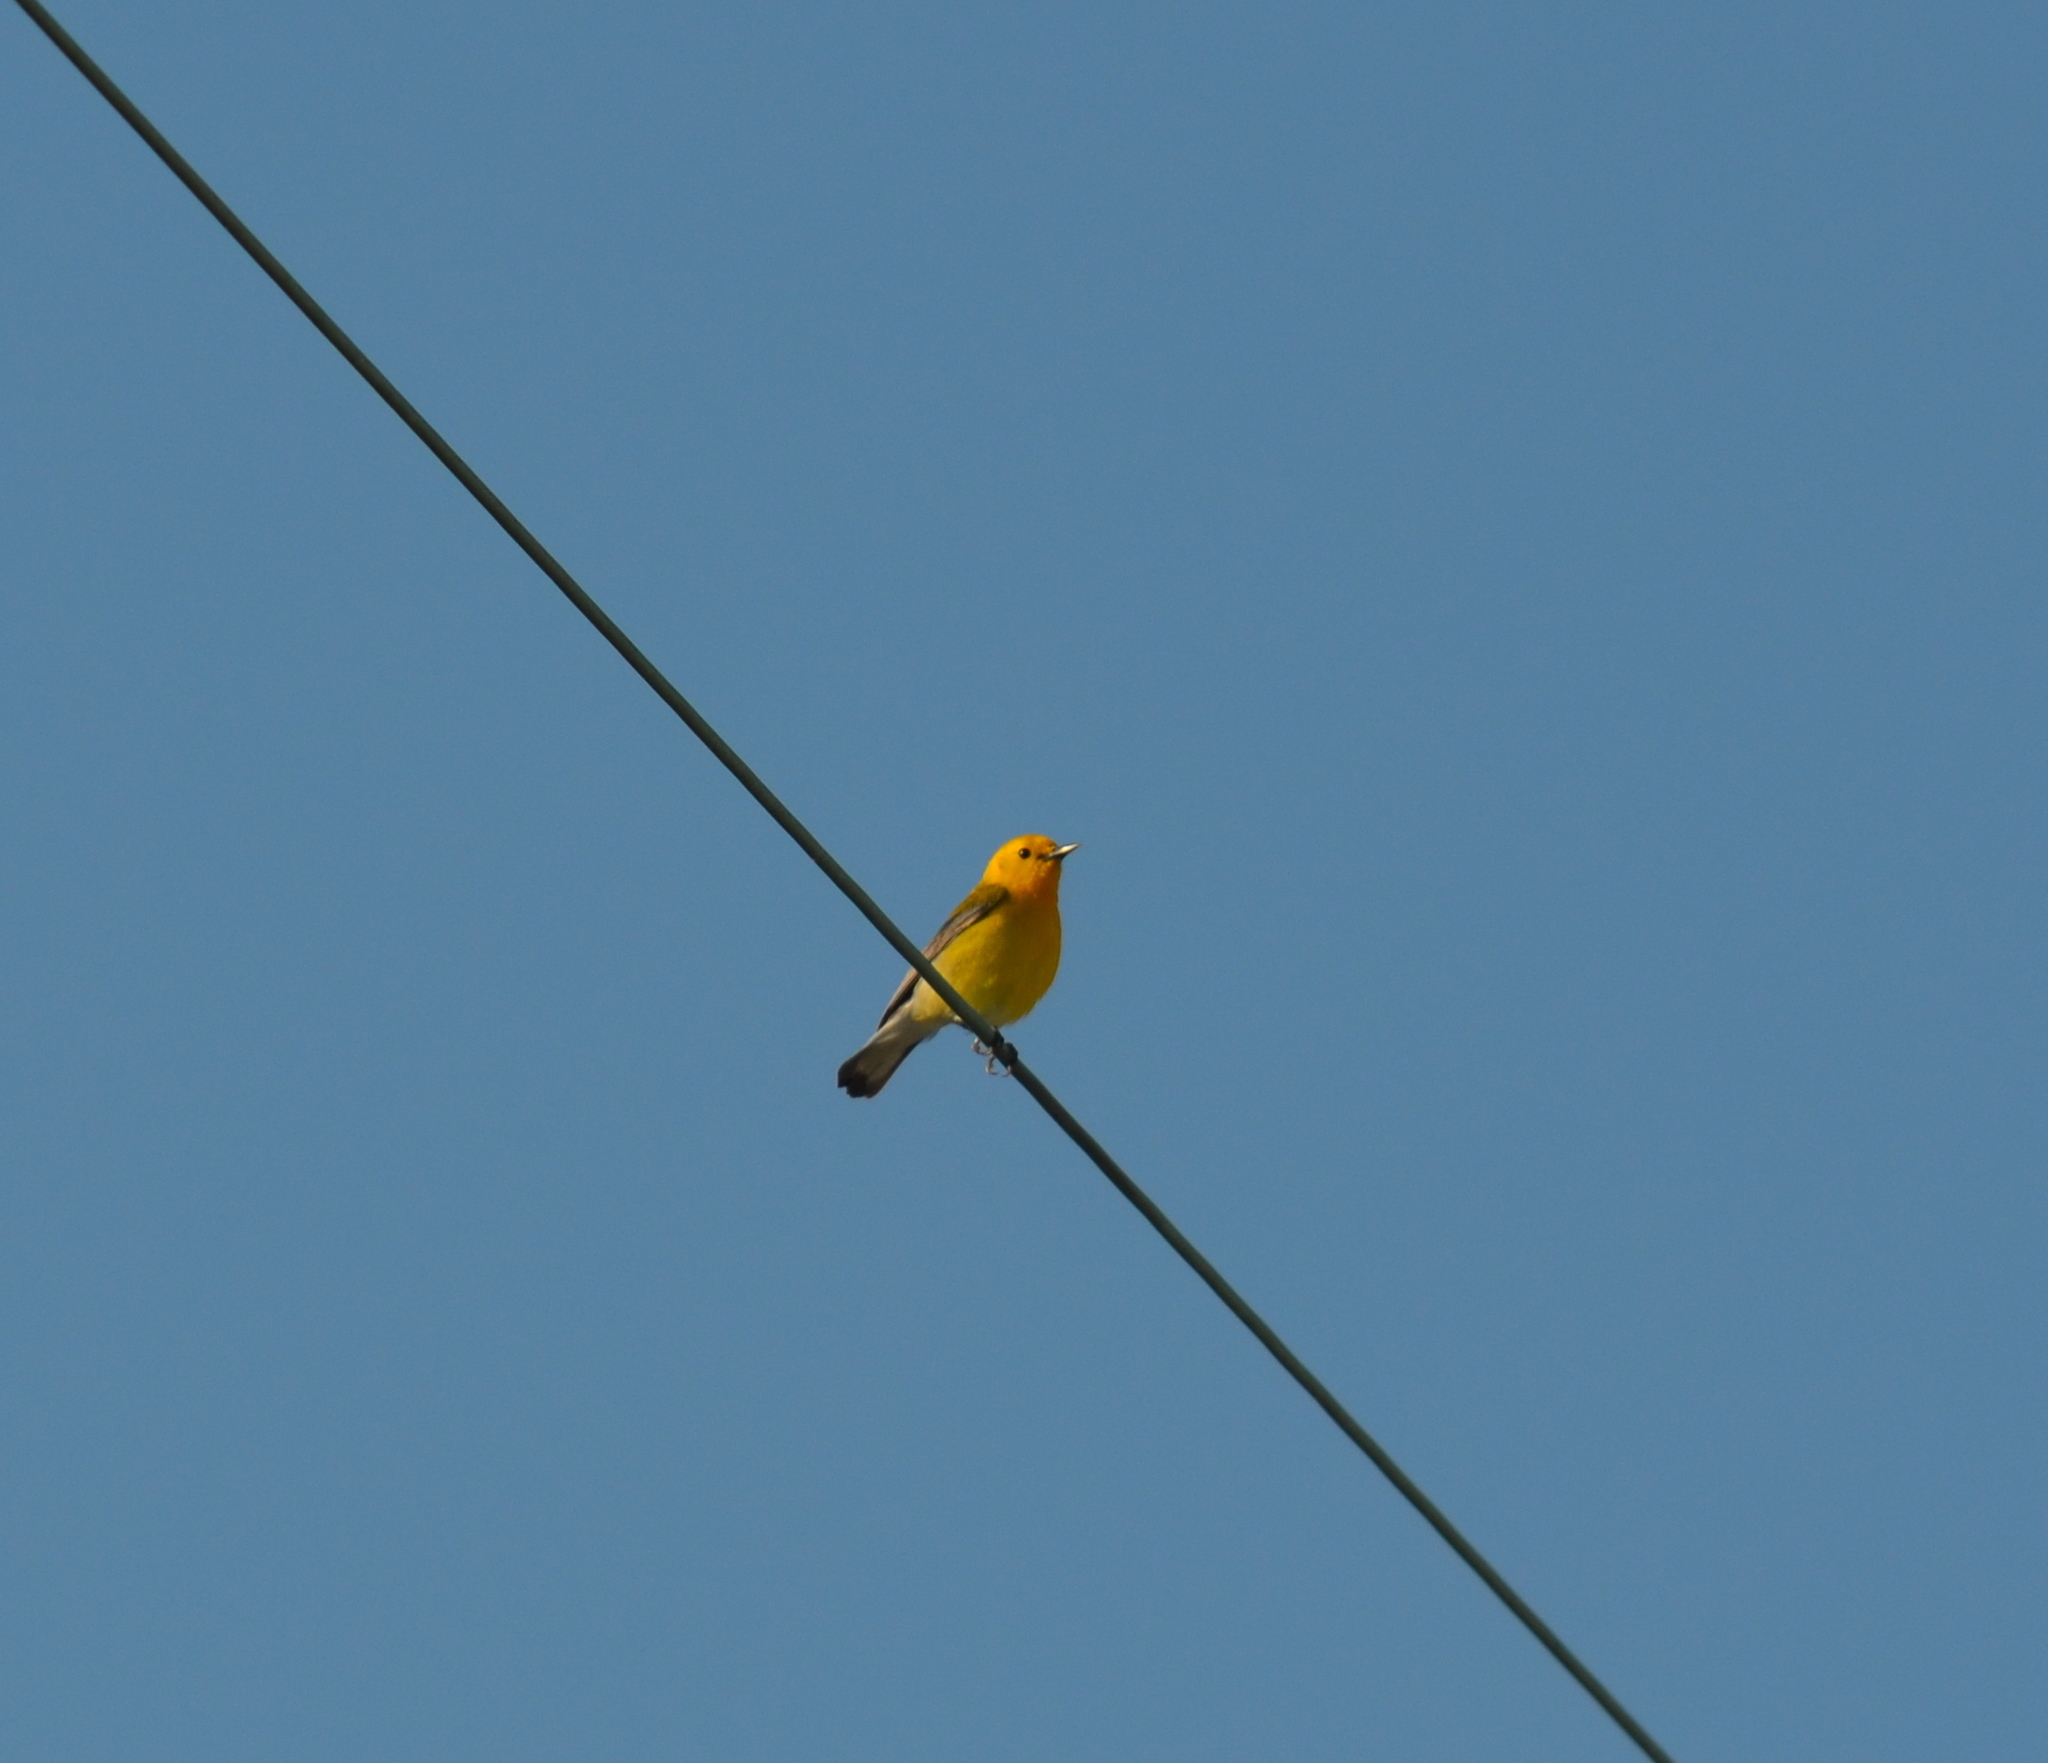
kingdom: Animalia
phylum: Chordata
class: Aves
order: Passeriformes
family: Parulidae
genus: Protonotaria
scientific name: Protonotaria citrea
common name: Prothonotary warbler
